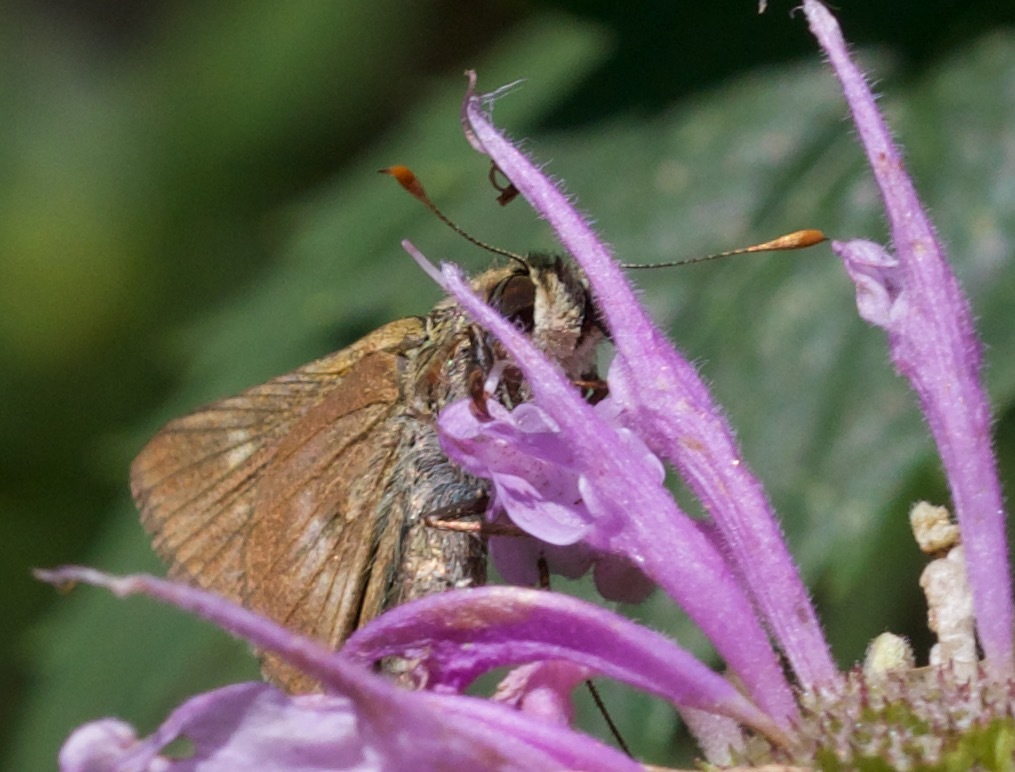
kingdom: Animalia
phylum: Arthropoda
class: Insecta
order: Lepidoptera
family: Hesperiidae
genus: Polites
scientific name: Polites egeremet
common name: Northern broken-dash
